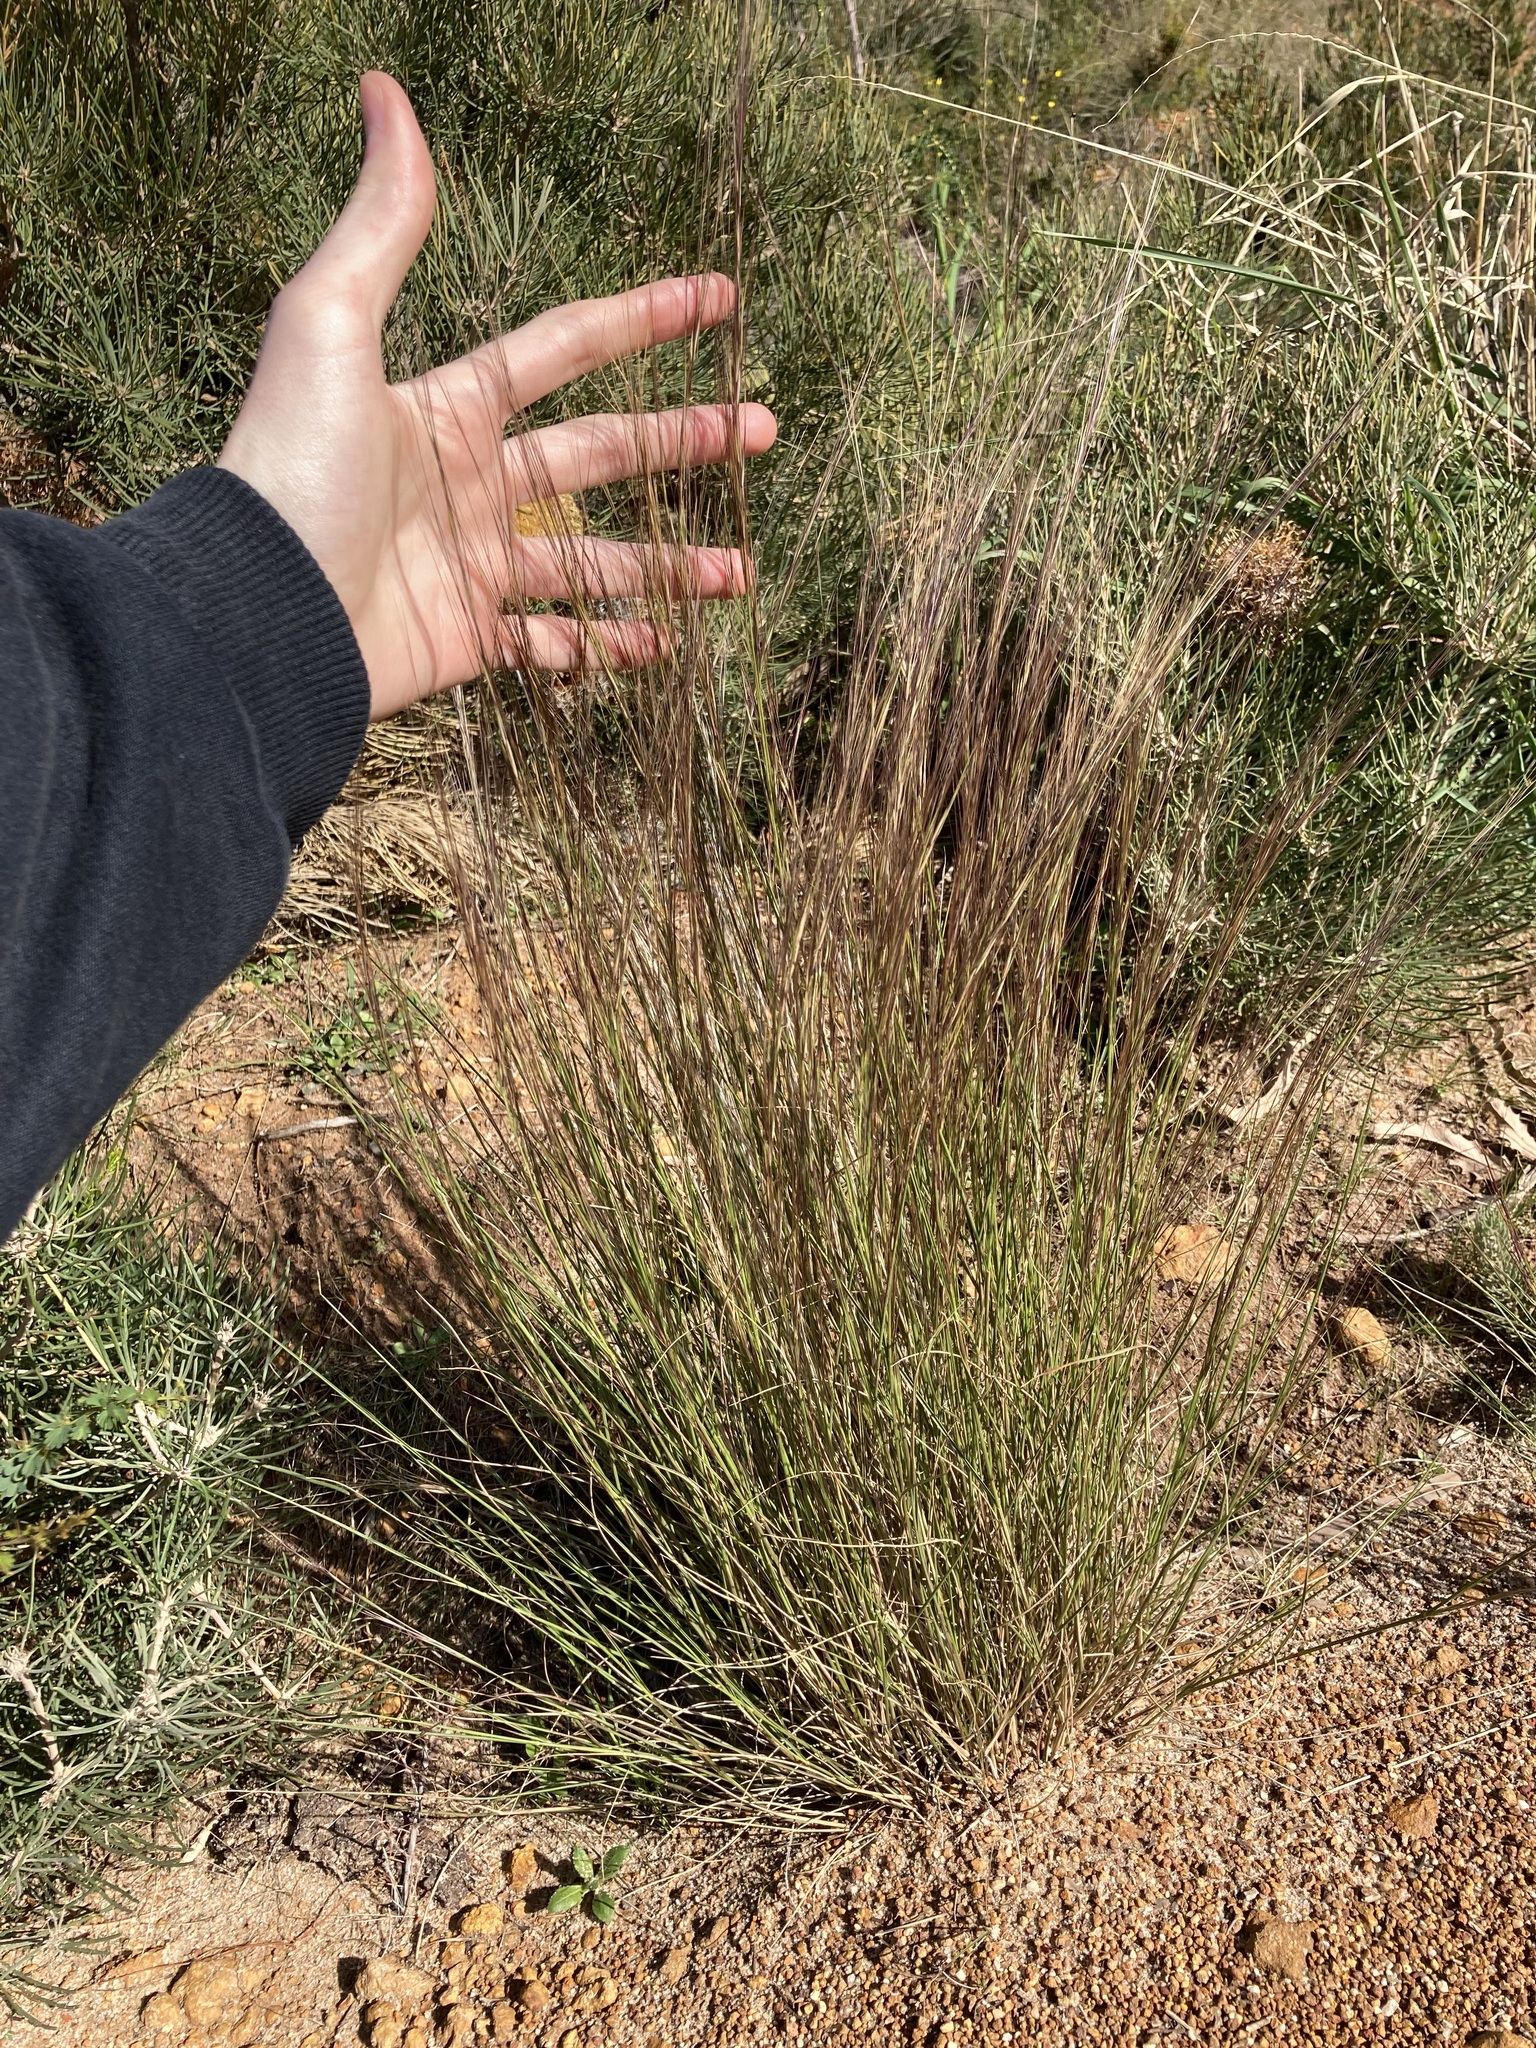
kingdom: Plantae
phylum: Tracheophyta
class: Liliopsida
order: Poales
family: Poaceae
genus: Aristida
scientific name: Aristida contorta
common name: Bunch kerosene grass
